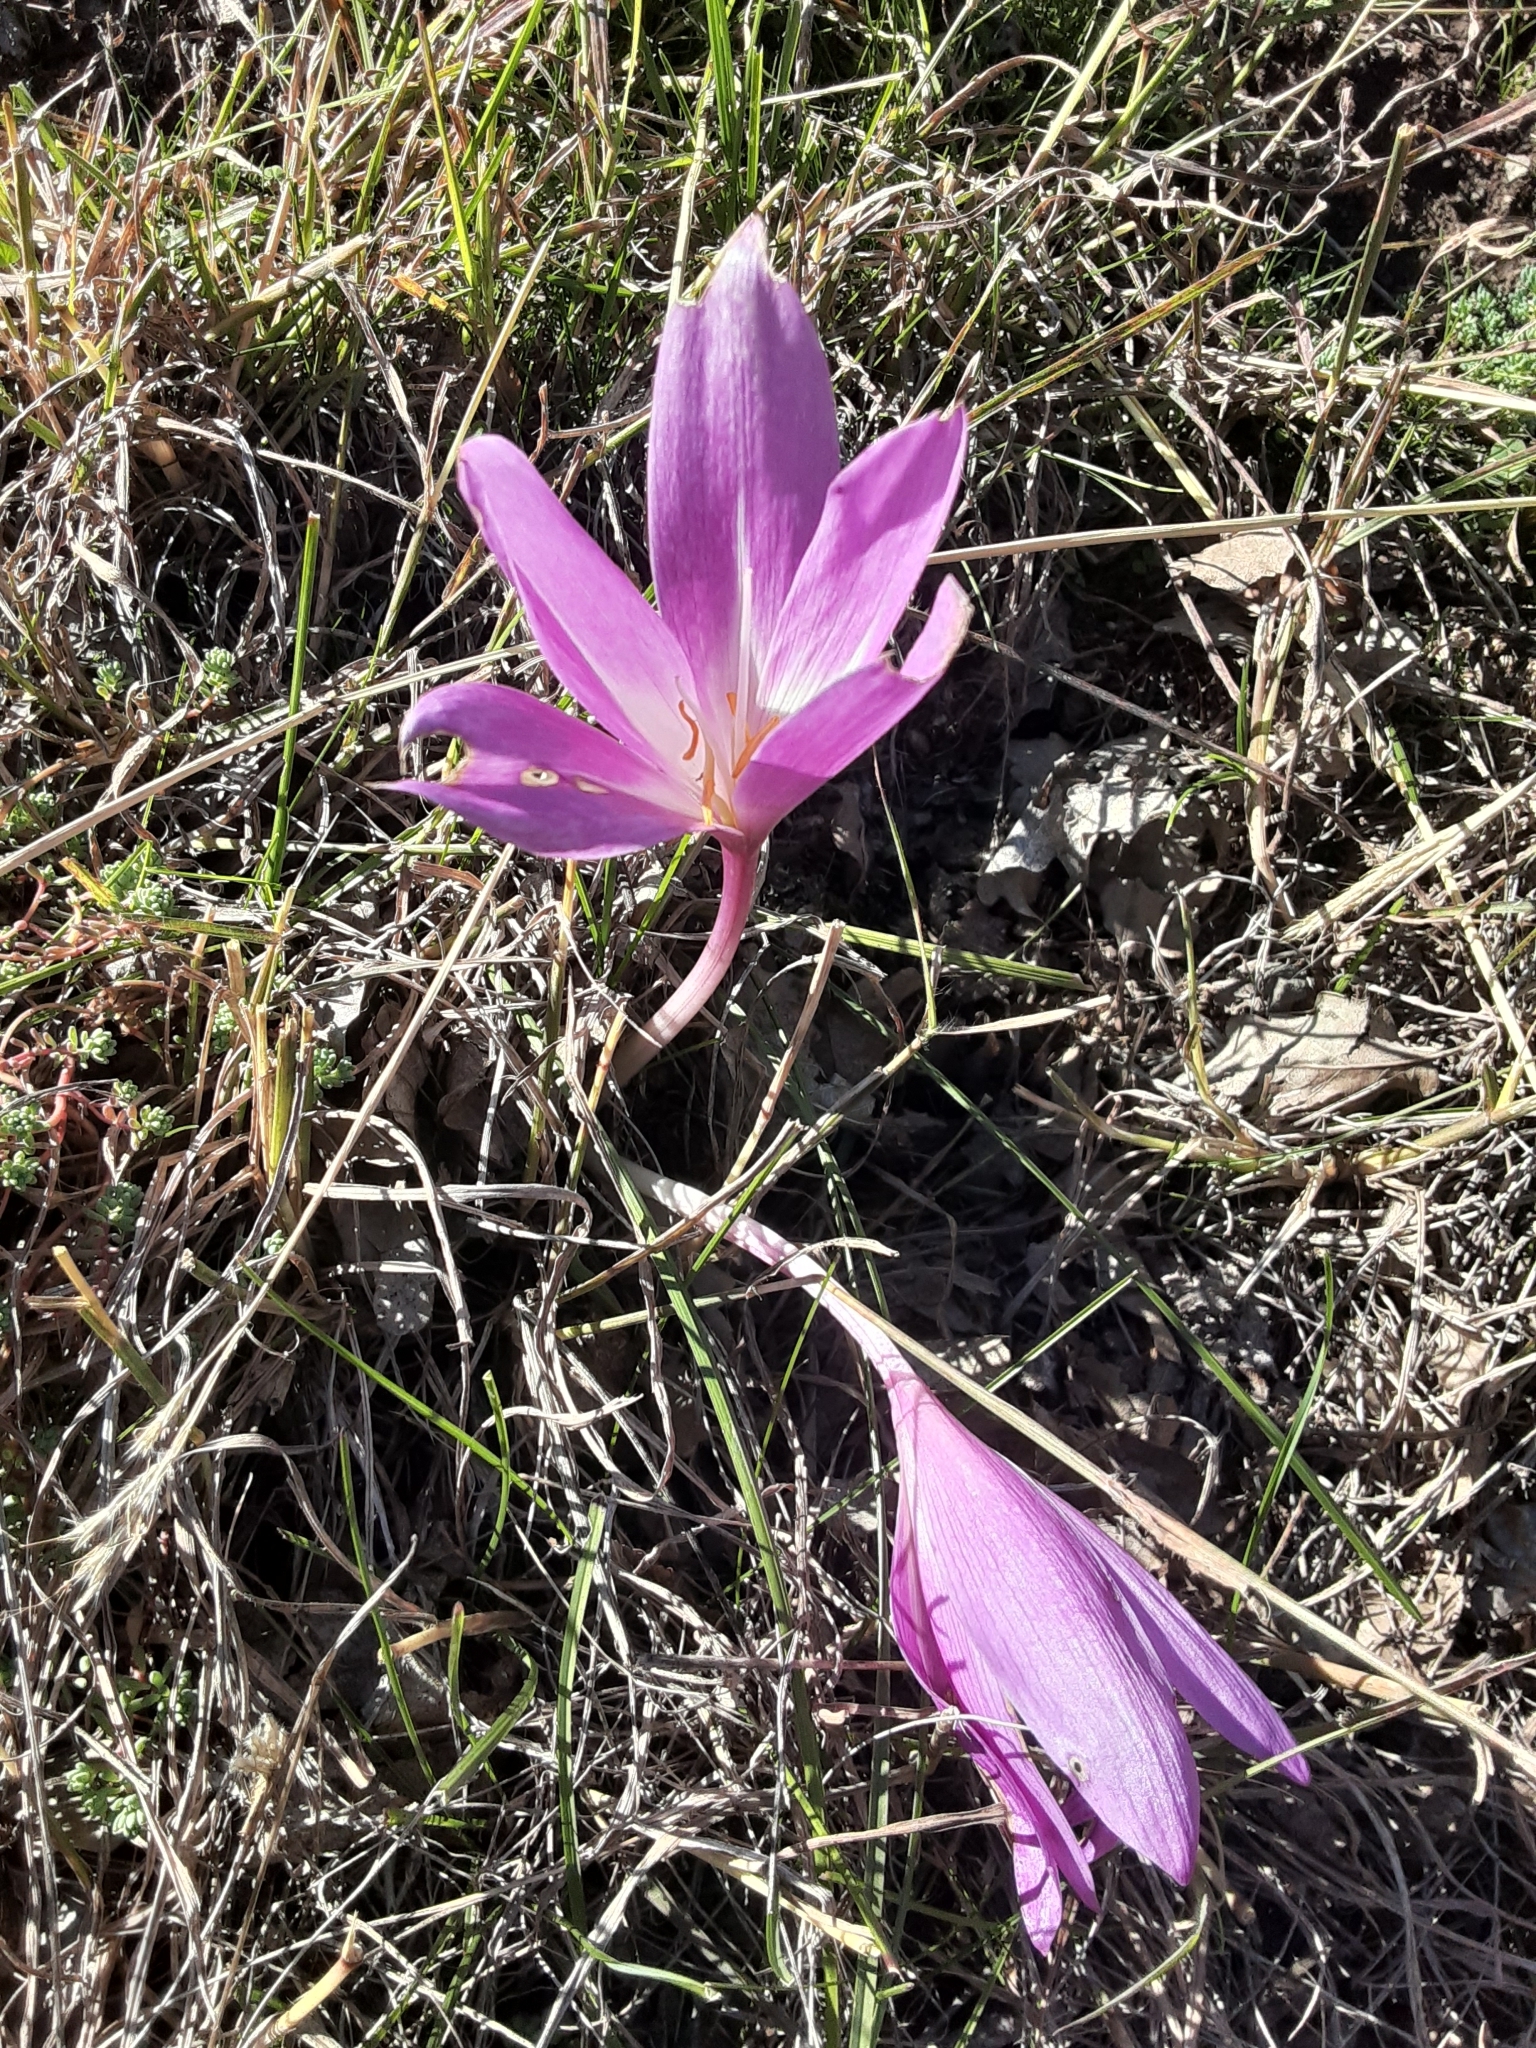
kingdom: Plantae
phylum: Tracheophyta
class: Liliopsida
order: Liliales
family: Colchicaceae
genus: Colchicum
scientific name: Colchicum speciosum
